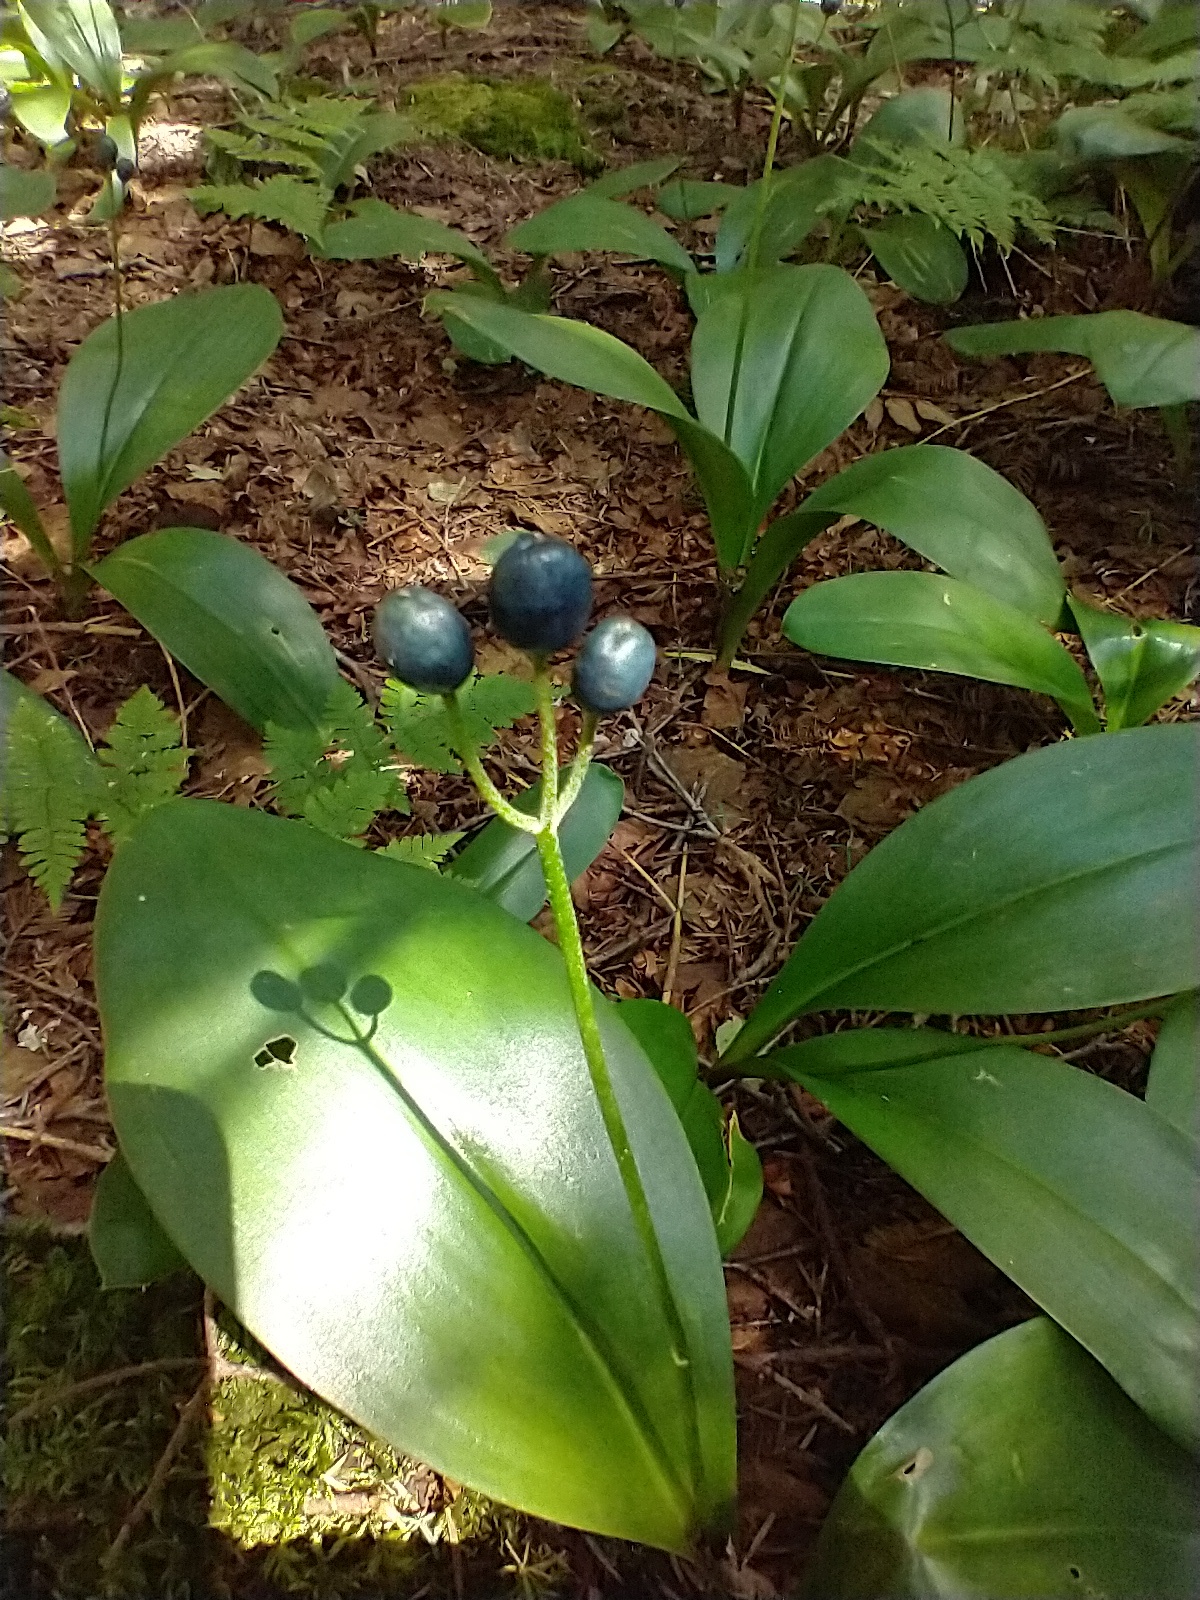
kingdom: Plantae
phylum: Tracheophyta
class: Liliopsida
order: Liliales
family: Liliaceae
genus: Clintonia
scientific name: Clintonia borealis
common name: Yellow clintonia
